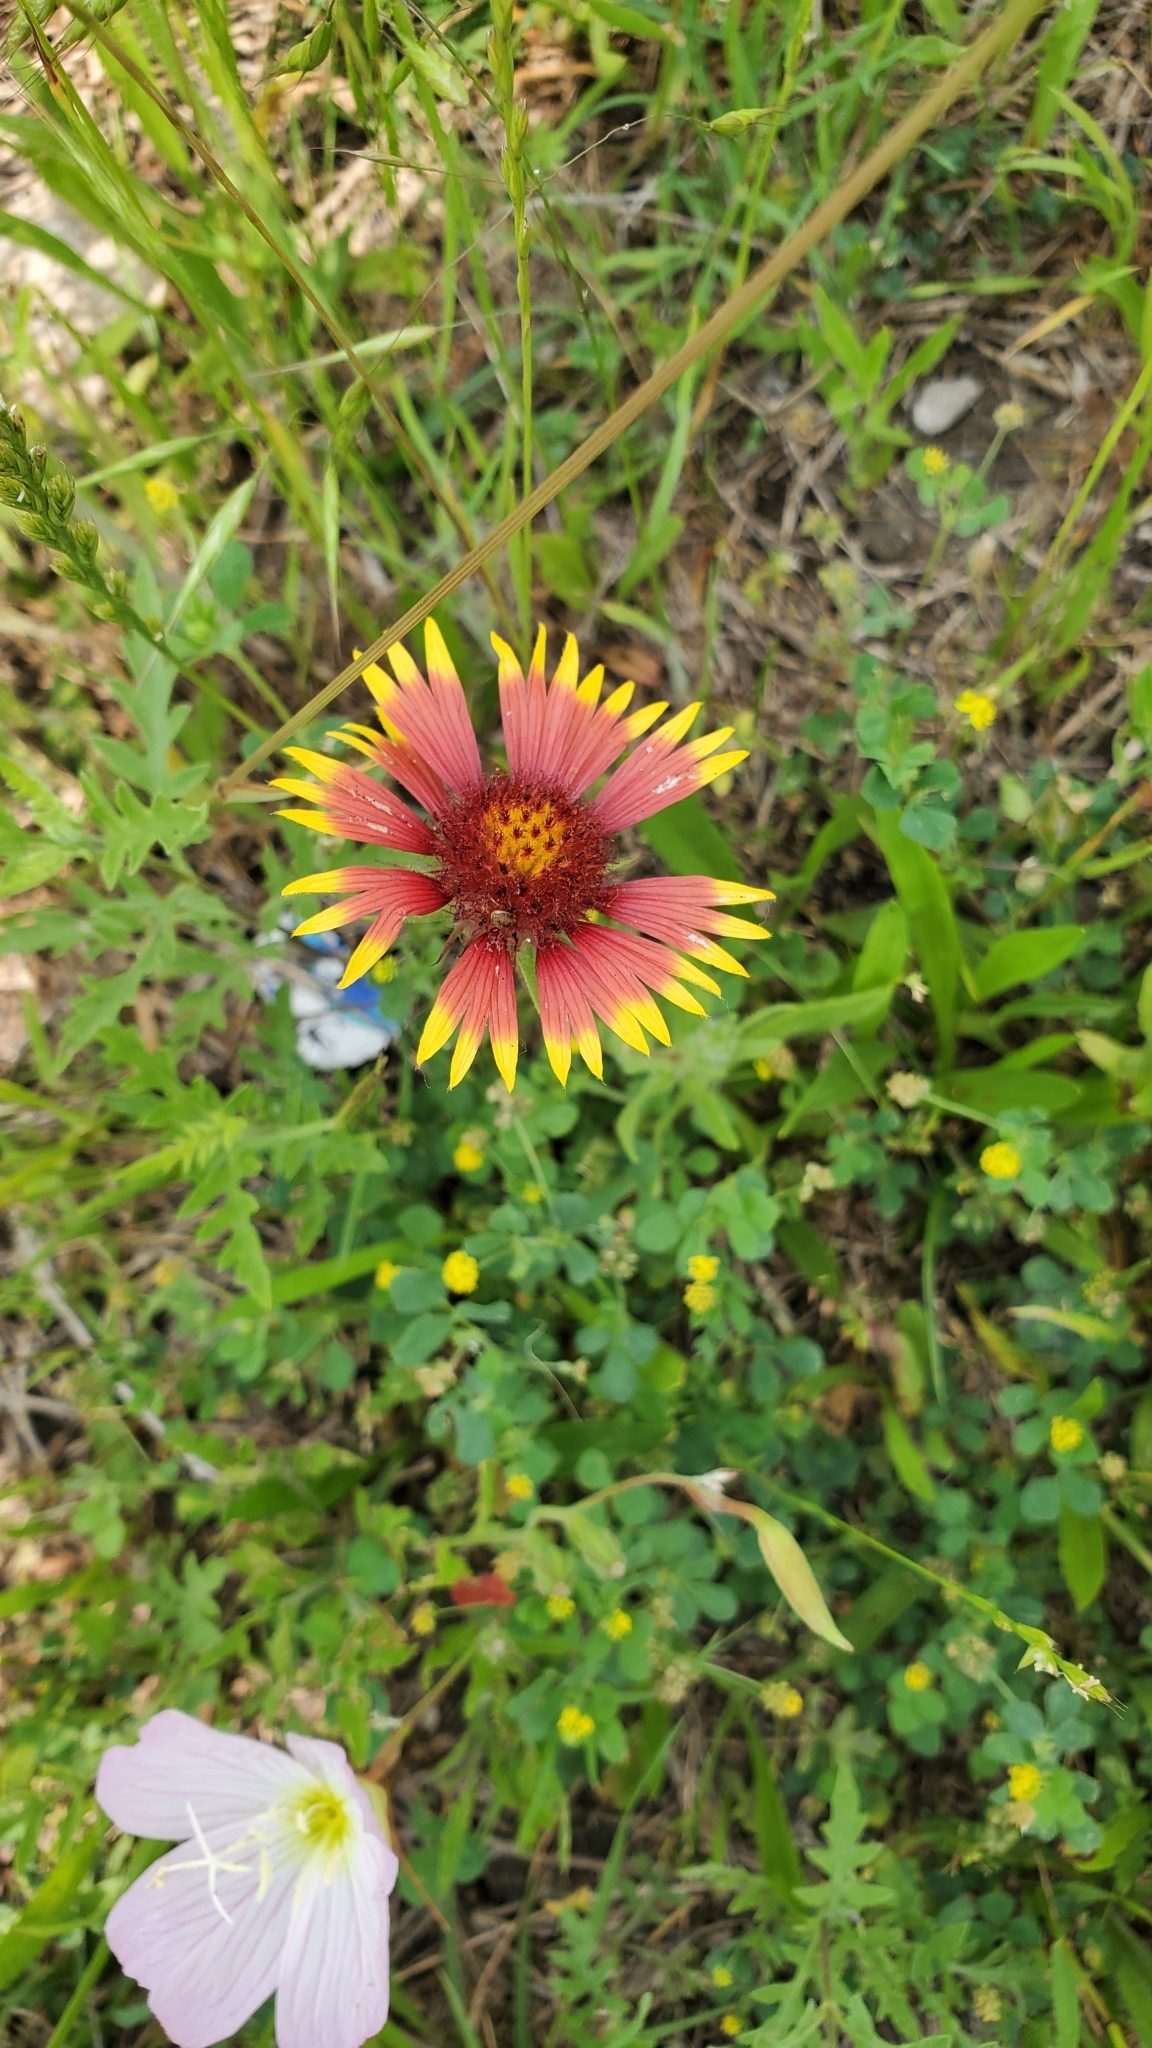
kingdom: Plantae
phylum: Tracheophyta
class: Magnoliopsida
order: Asterales
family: Asteraceae
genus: Gaillardia
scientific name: Gaillardia pulchella
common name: Firewheel
